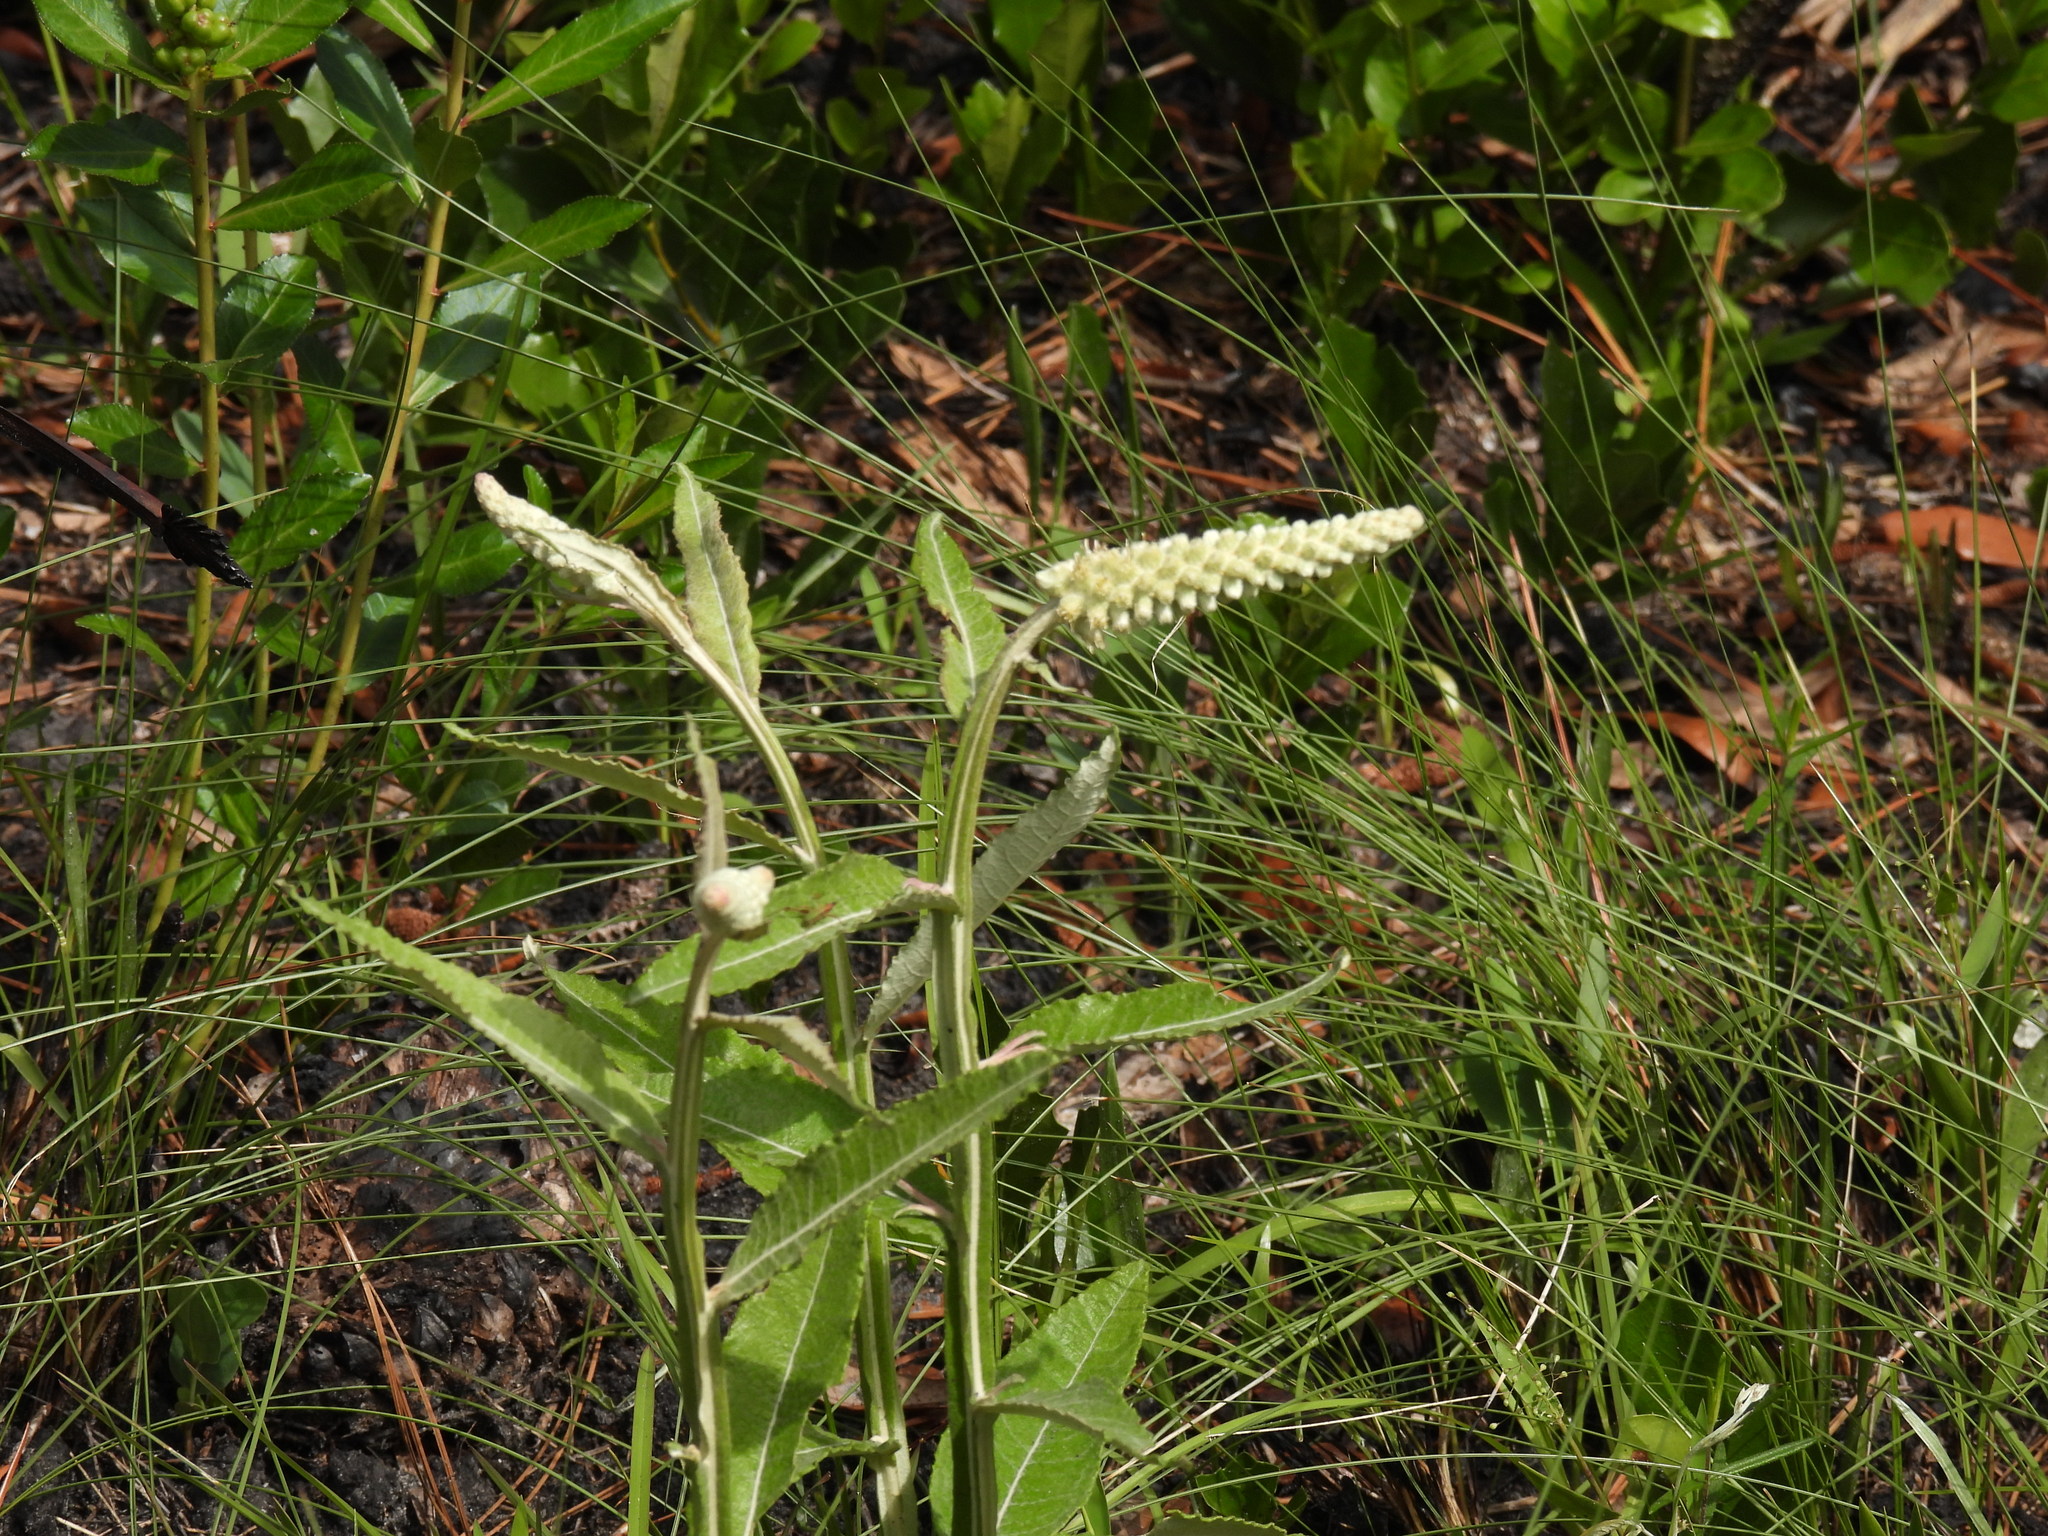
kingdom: Plantae
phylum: Tracheophyta
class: Magnoliopsida
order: Asterales
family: Asteraceae
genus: Pterocaulon
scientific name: Pterocaulon pycnostachyum
